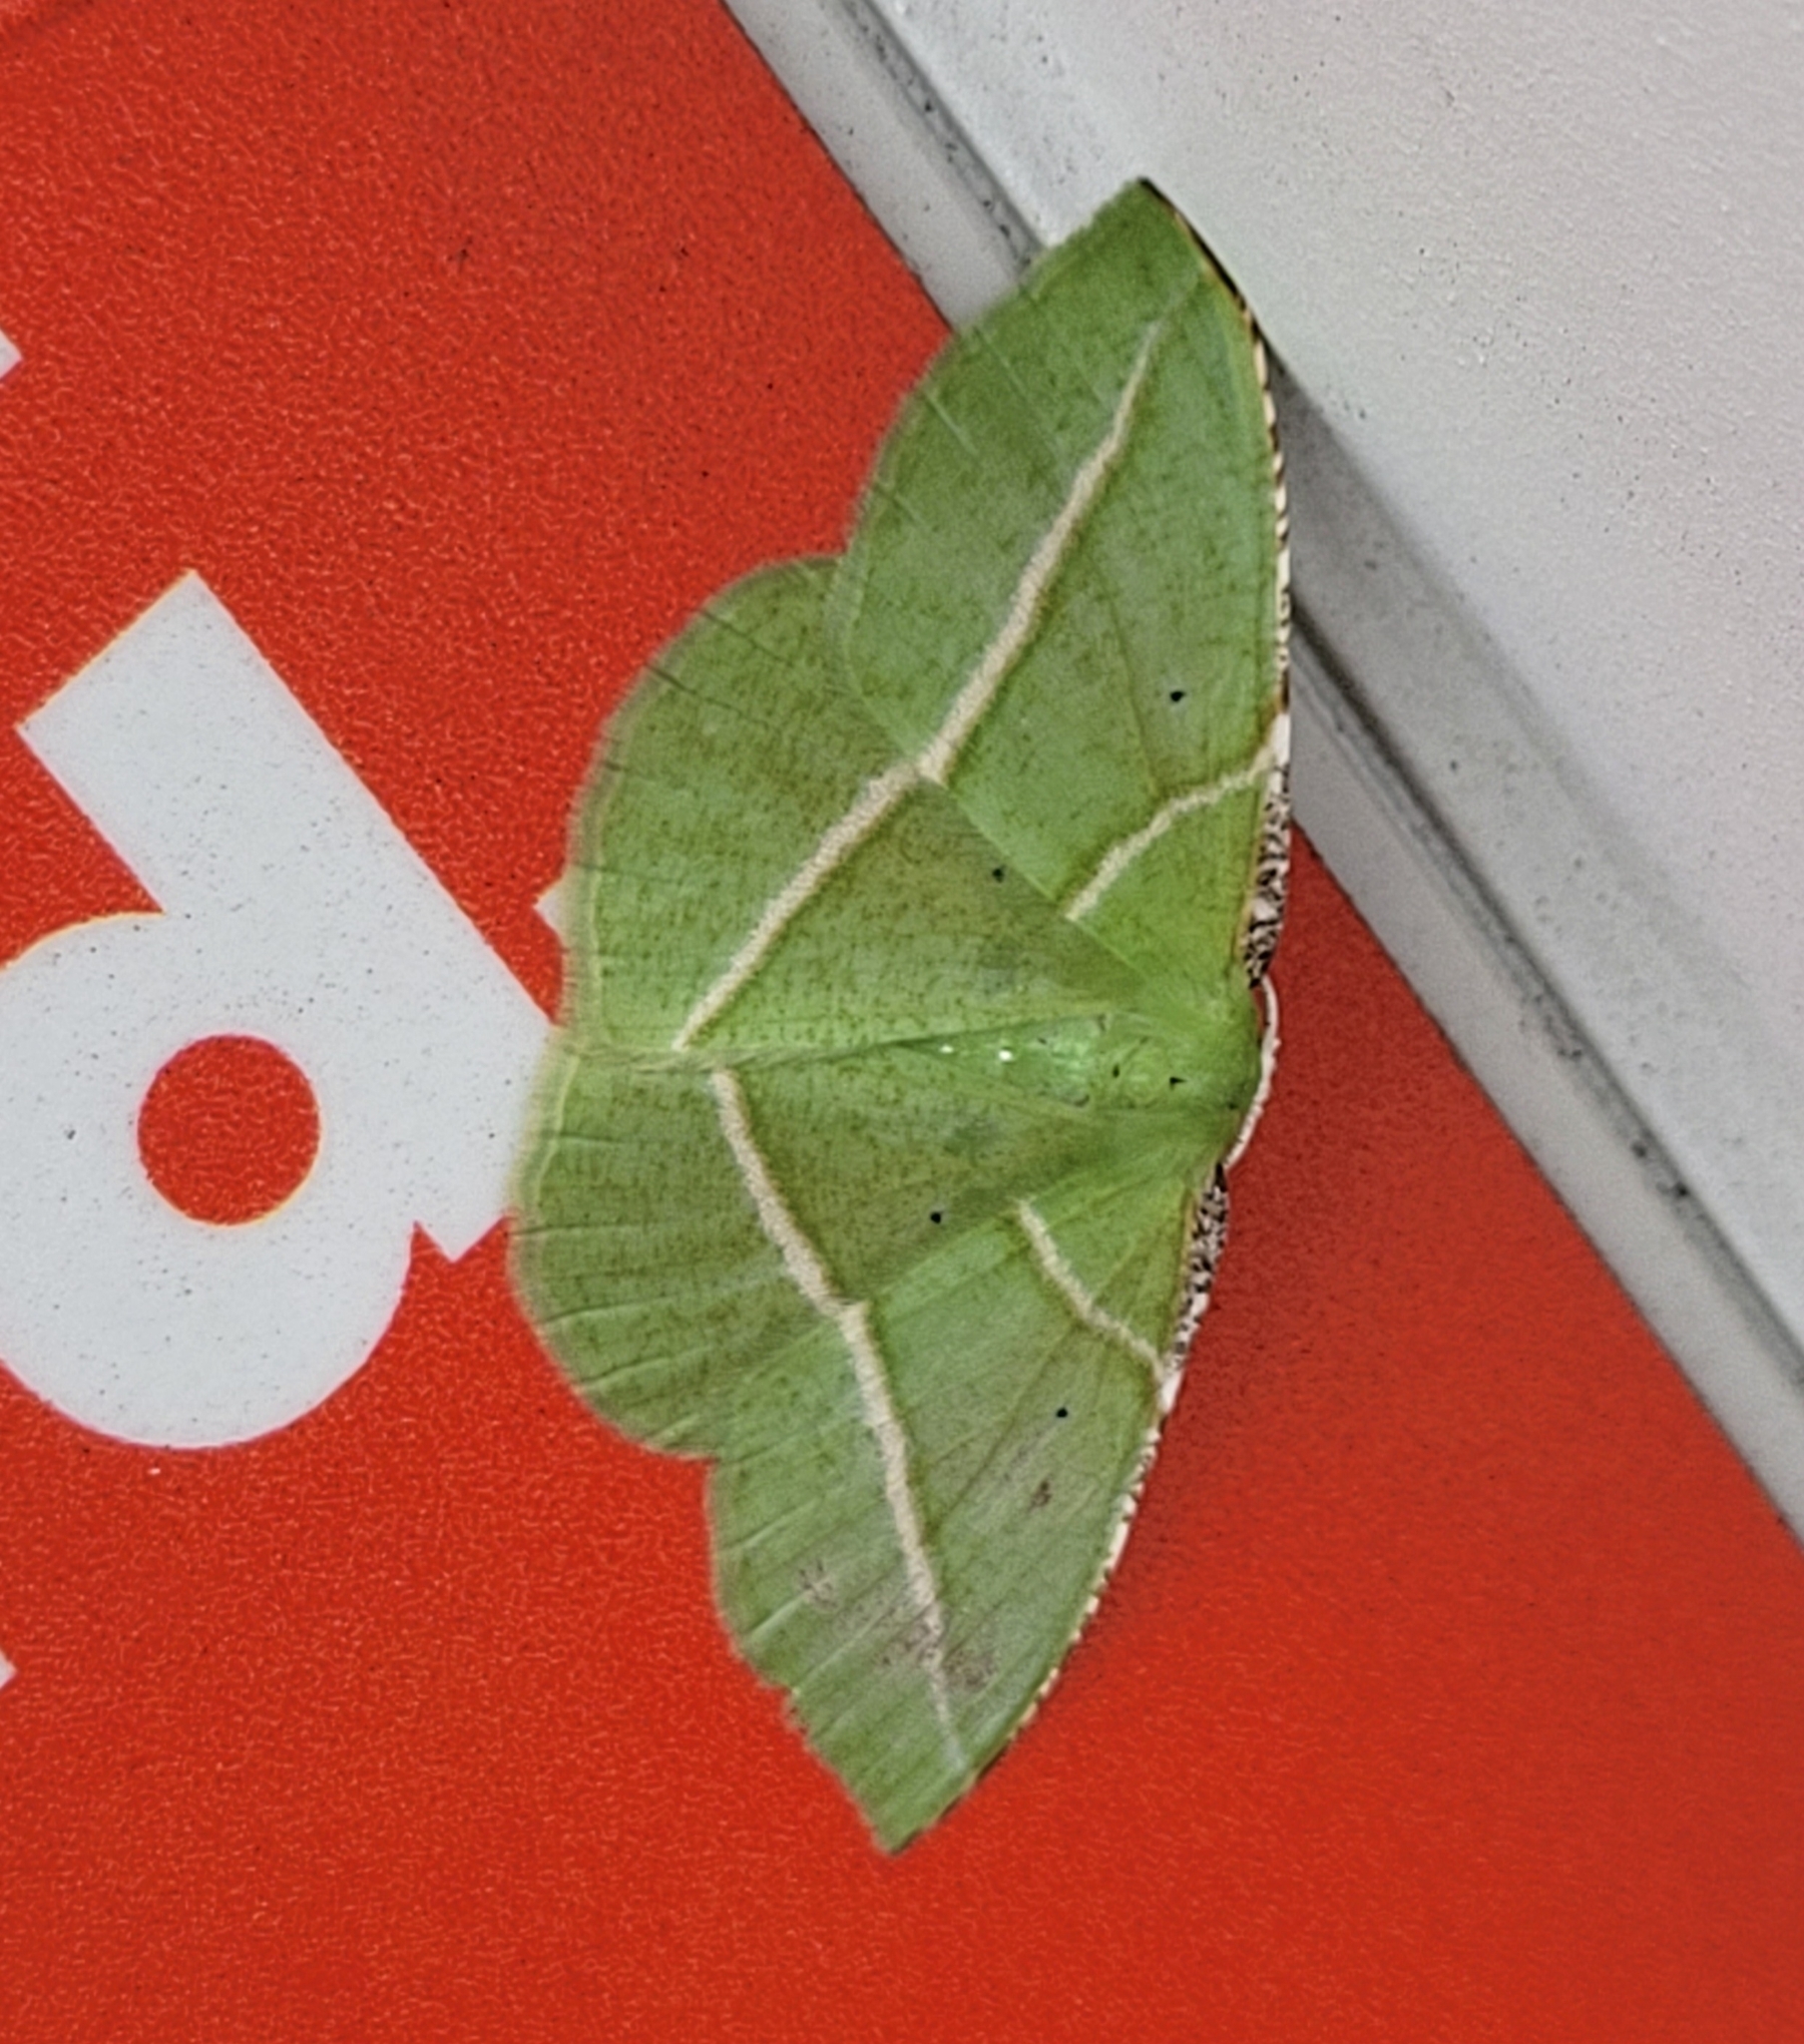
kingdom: Animalia
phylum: Arthropoda
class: Insecta
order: Lepidoptera
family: Geometridae
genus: Dichorda
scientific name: Dichorda illustraria
